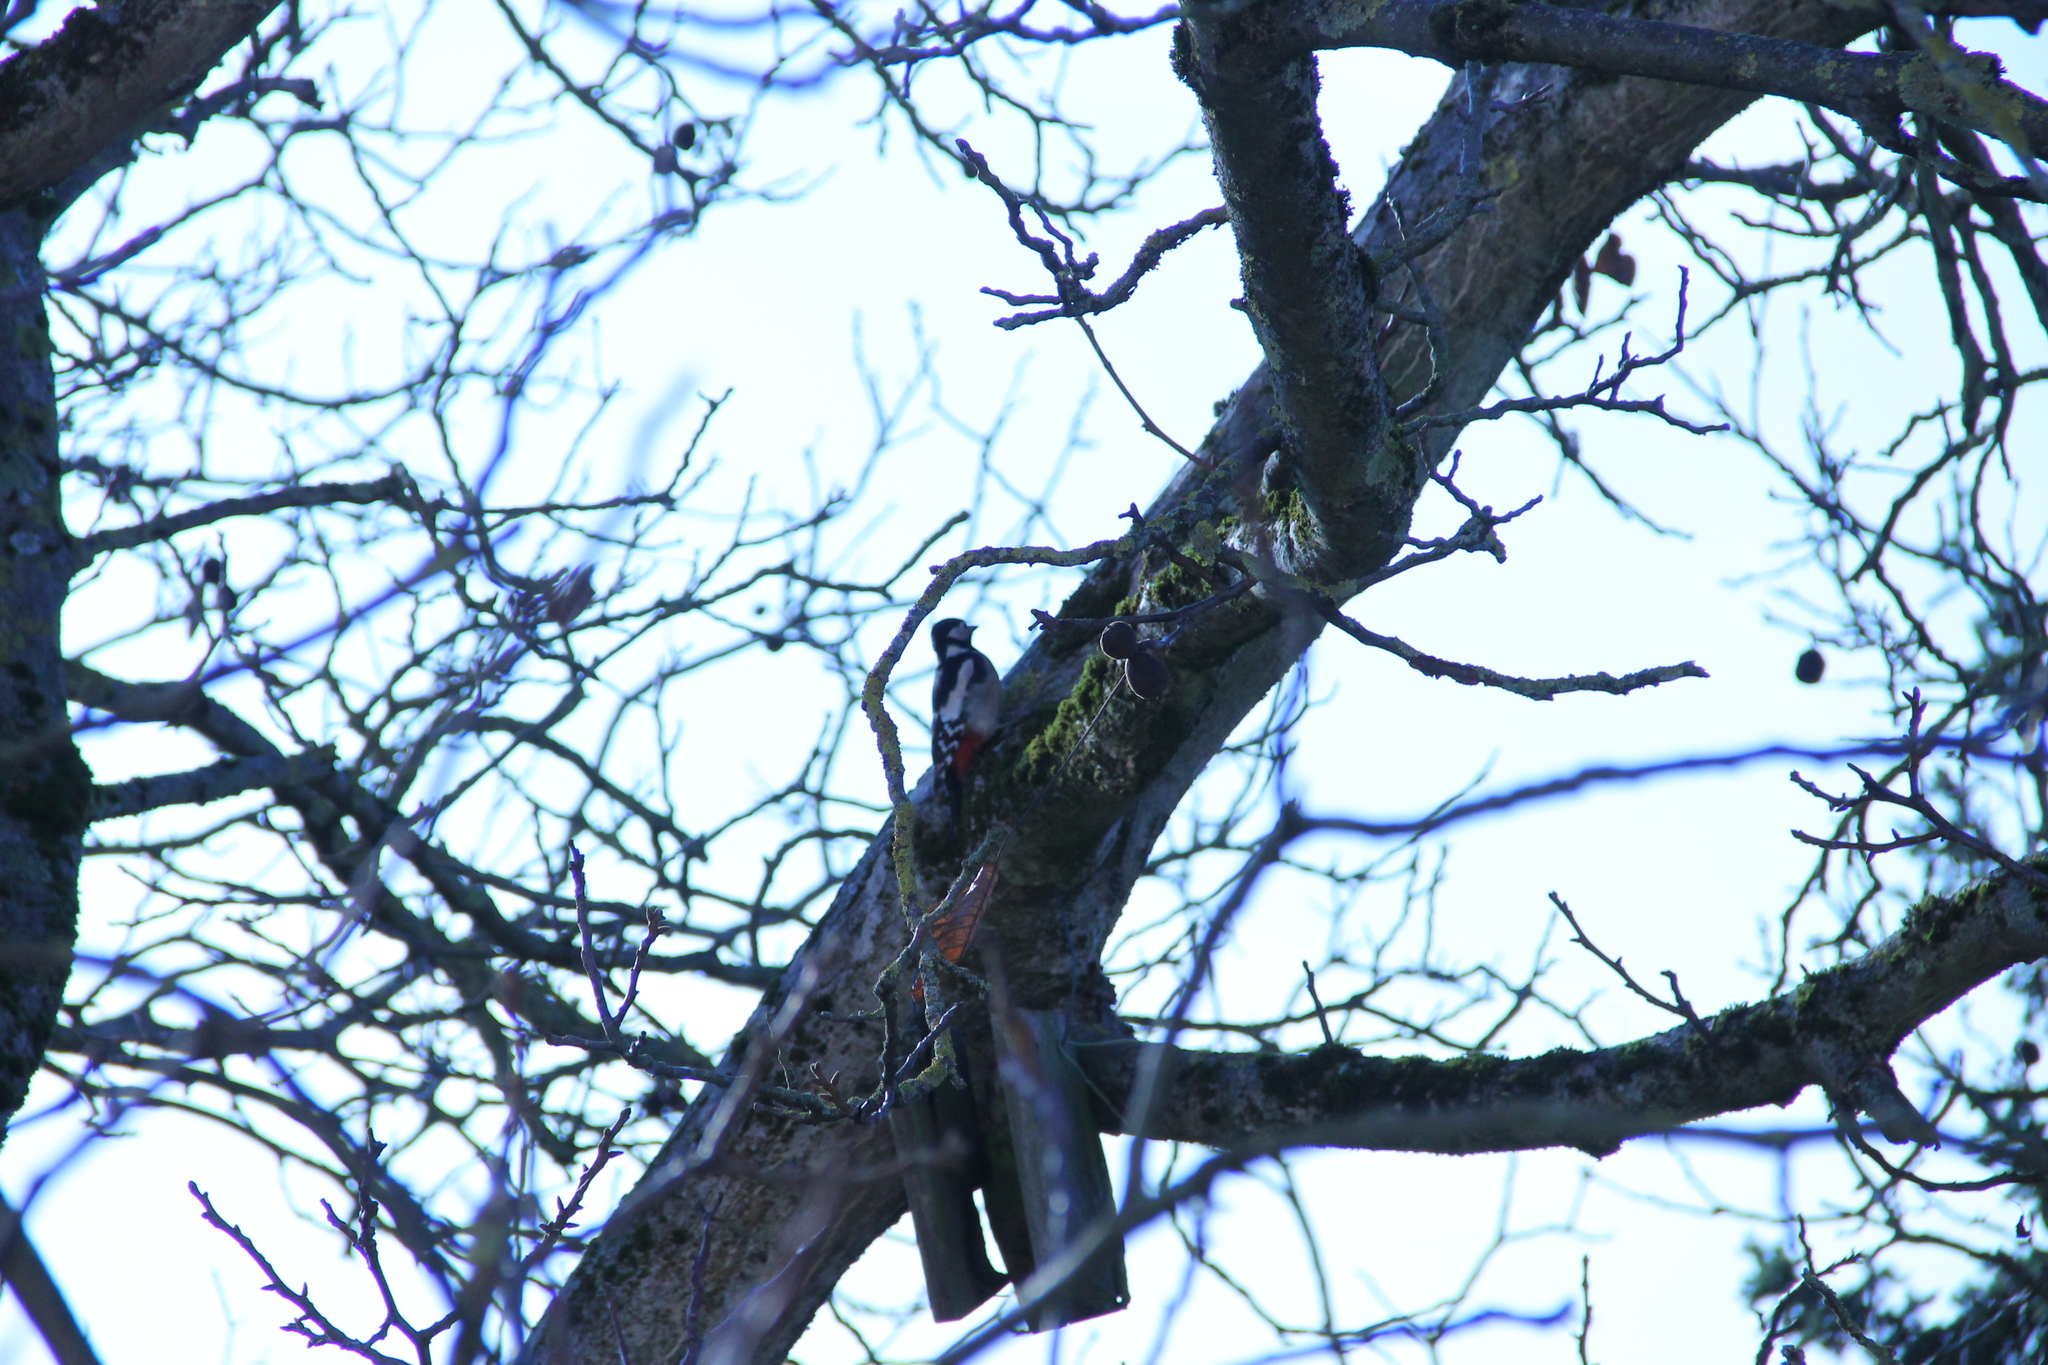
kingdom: Animalia
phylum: Chordata
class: Aves
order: Piciformes
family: Picidae
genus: Dendrocopos
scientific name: Dendrocopos major
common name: Great spotted woodpecker
